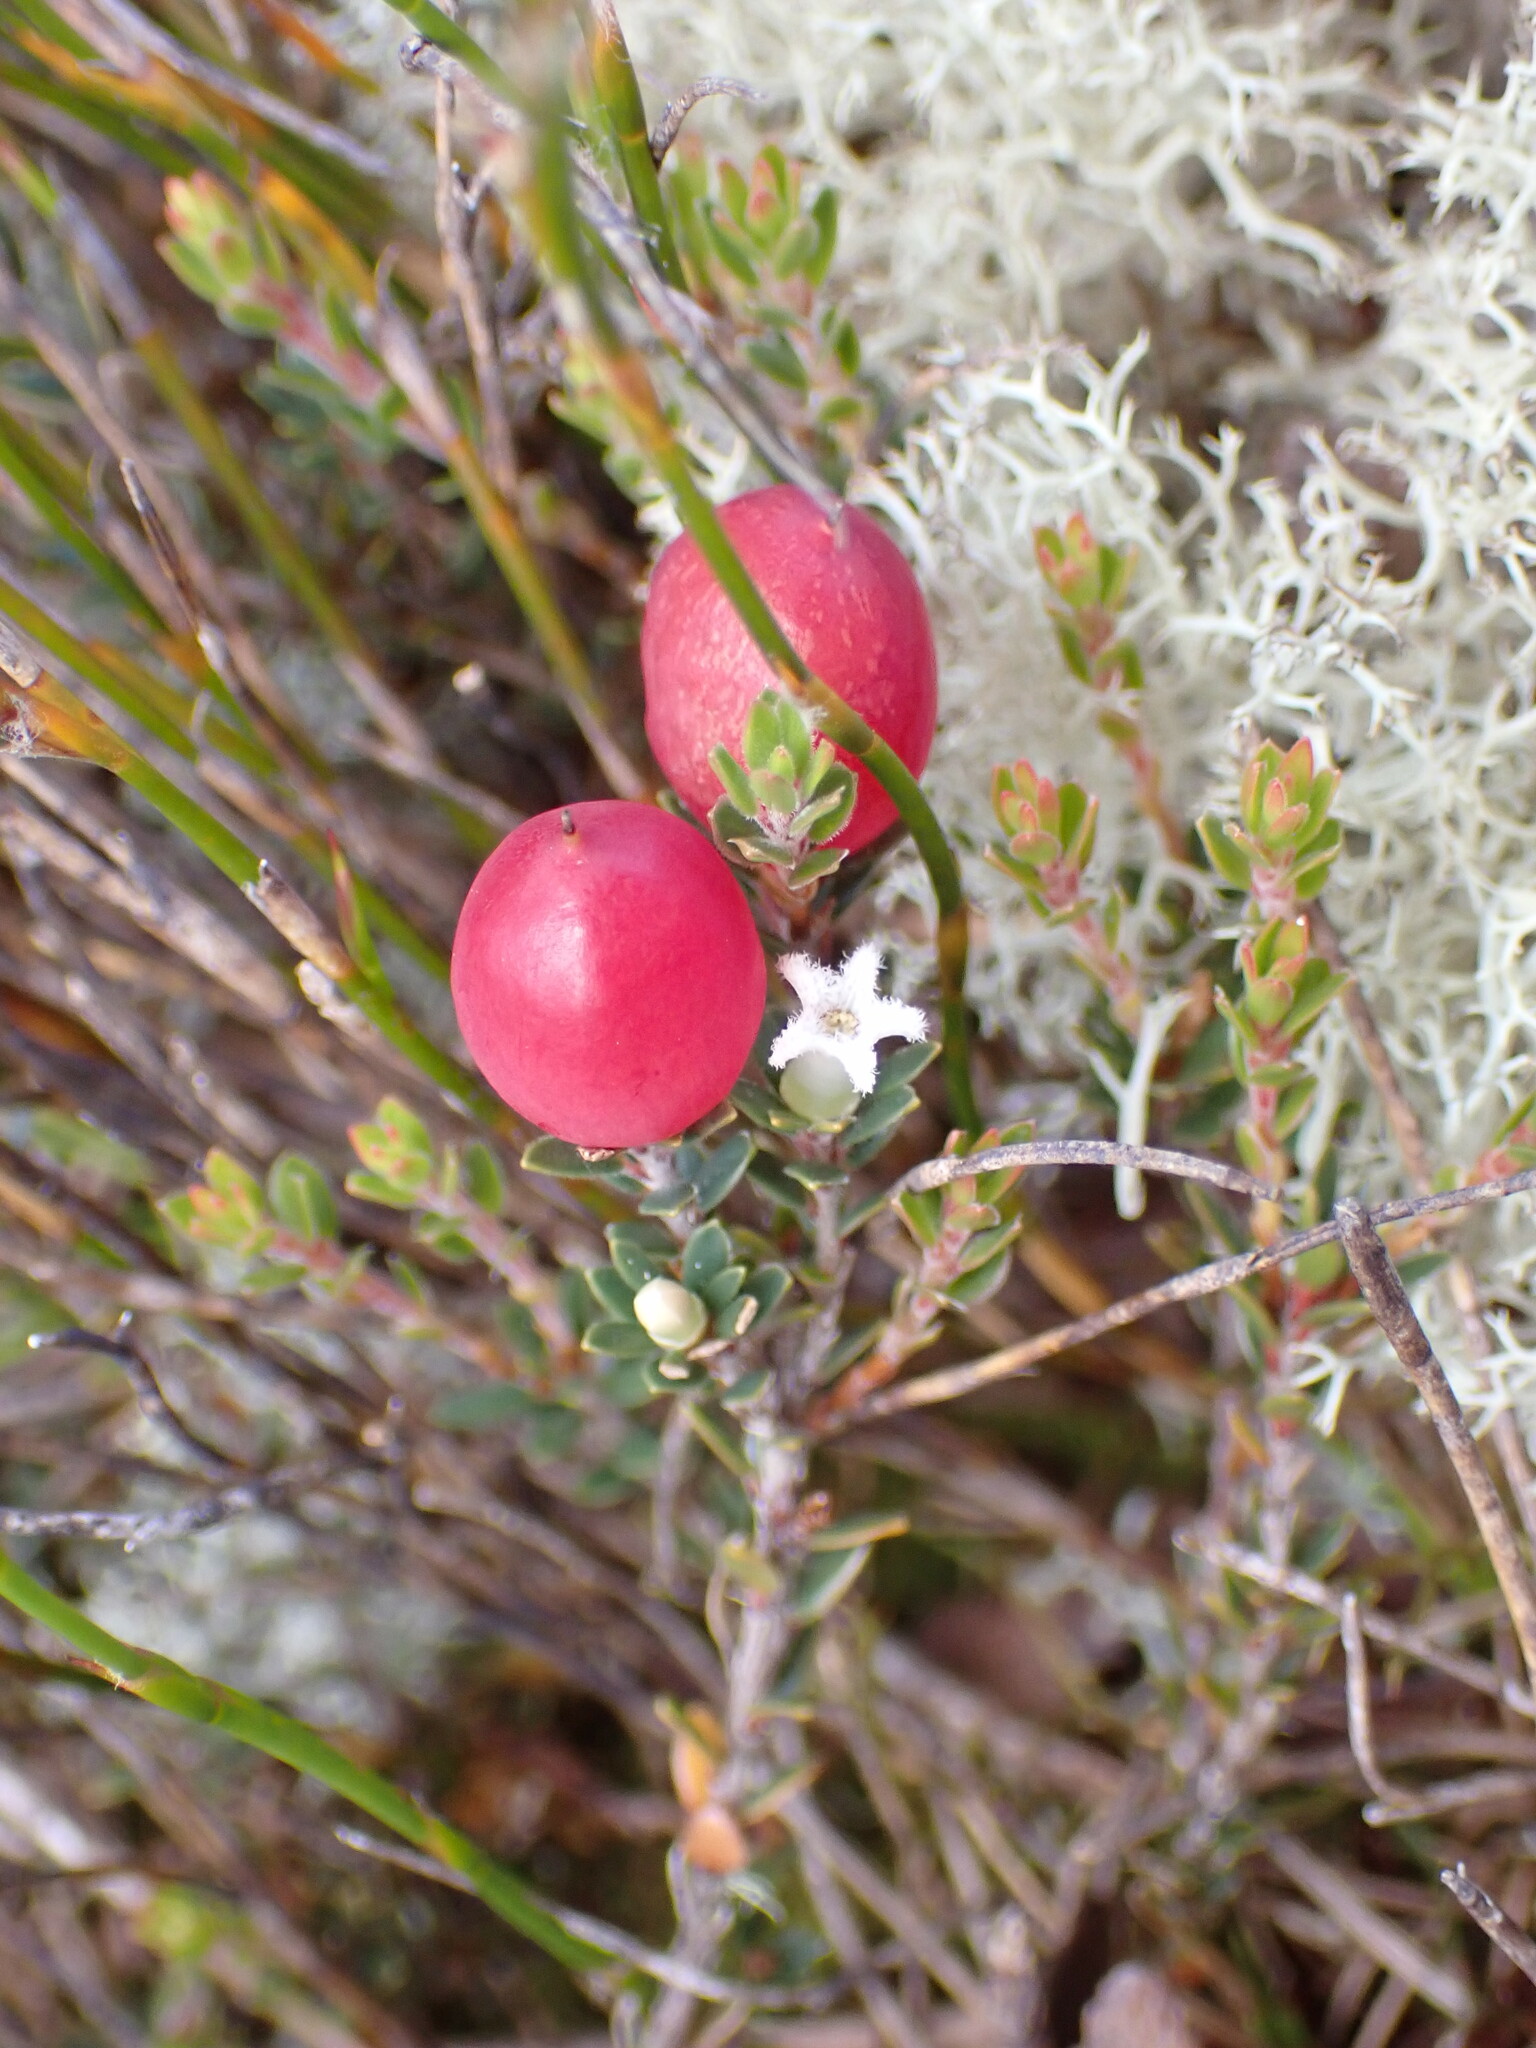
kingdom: Plantae
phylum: Tracheophyta
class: Magnoliopsida
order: Ericales
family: Ericaceae
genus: Pentachondra
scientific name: Pentachondra pumila
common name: Carpet-heath
